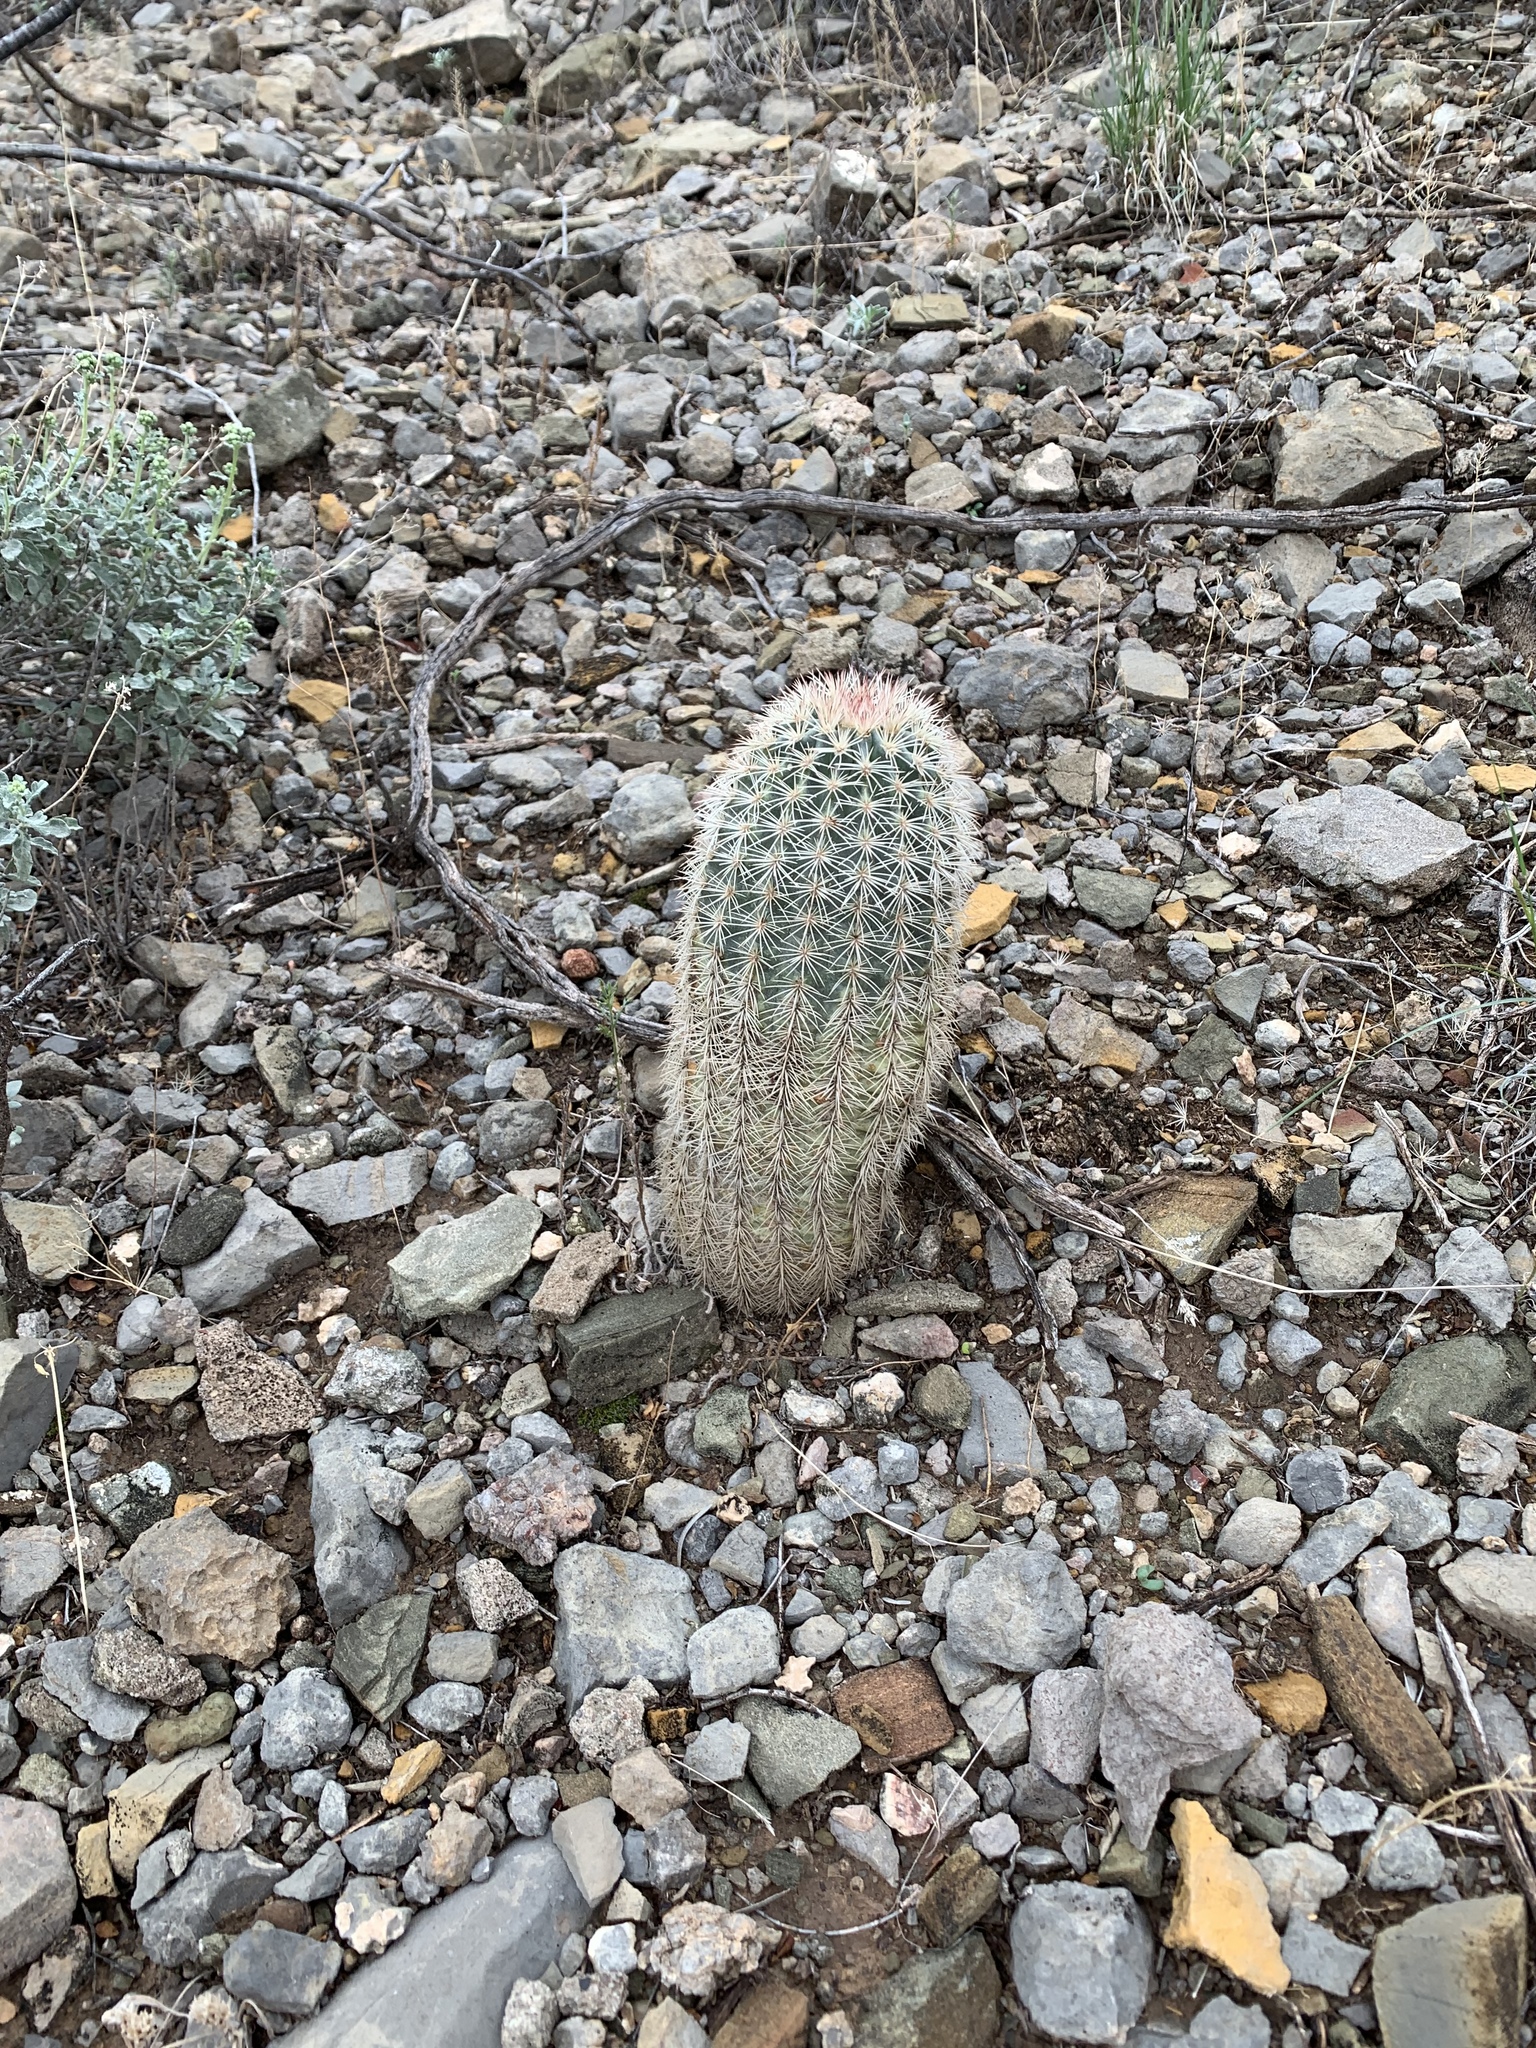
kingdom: Plantae
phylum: Tracheophyta
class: Magnoliopsida
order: Caryophyllales
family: Cactaceae
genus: Echinocereus
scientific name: Echinocereus dasyacanthus
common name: Spiny hedgehog cactus
